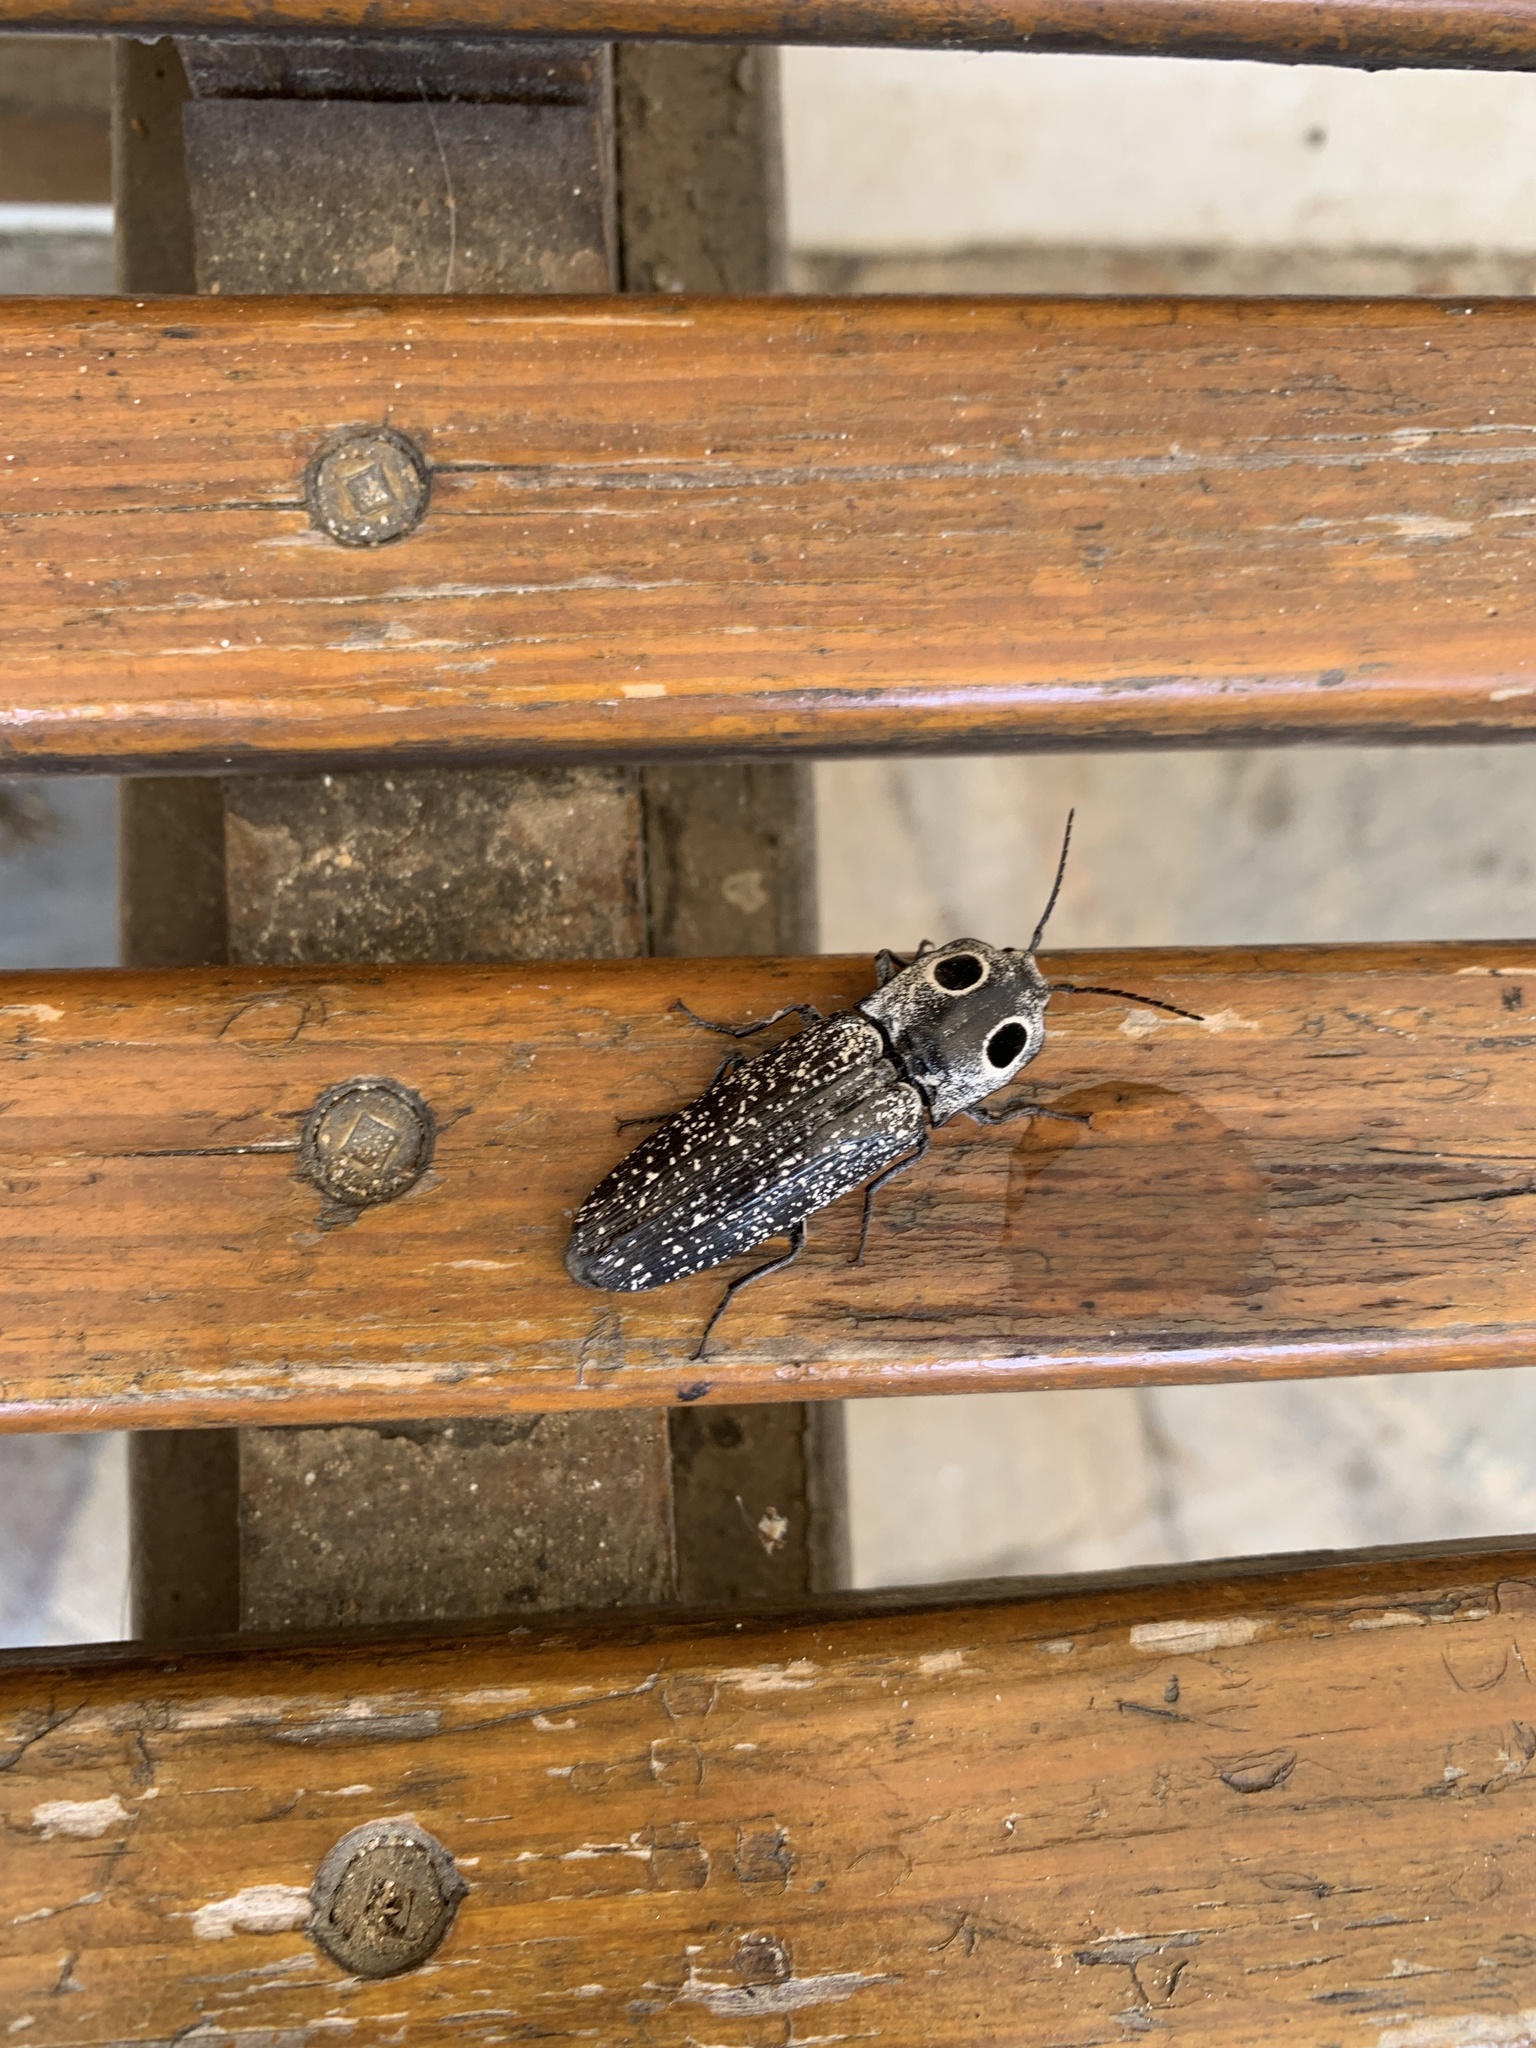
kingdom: Animalia
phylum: Arthropoda
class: Insecta
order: Coleoptera
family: Elateridae
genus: Alaus
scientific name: Alaus oculatus
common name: Eastern eyed click beetle
